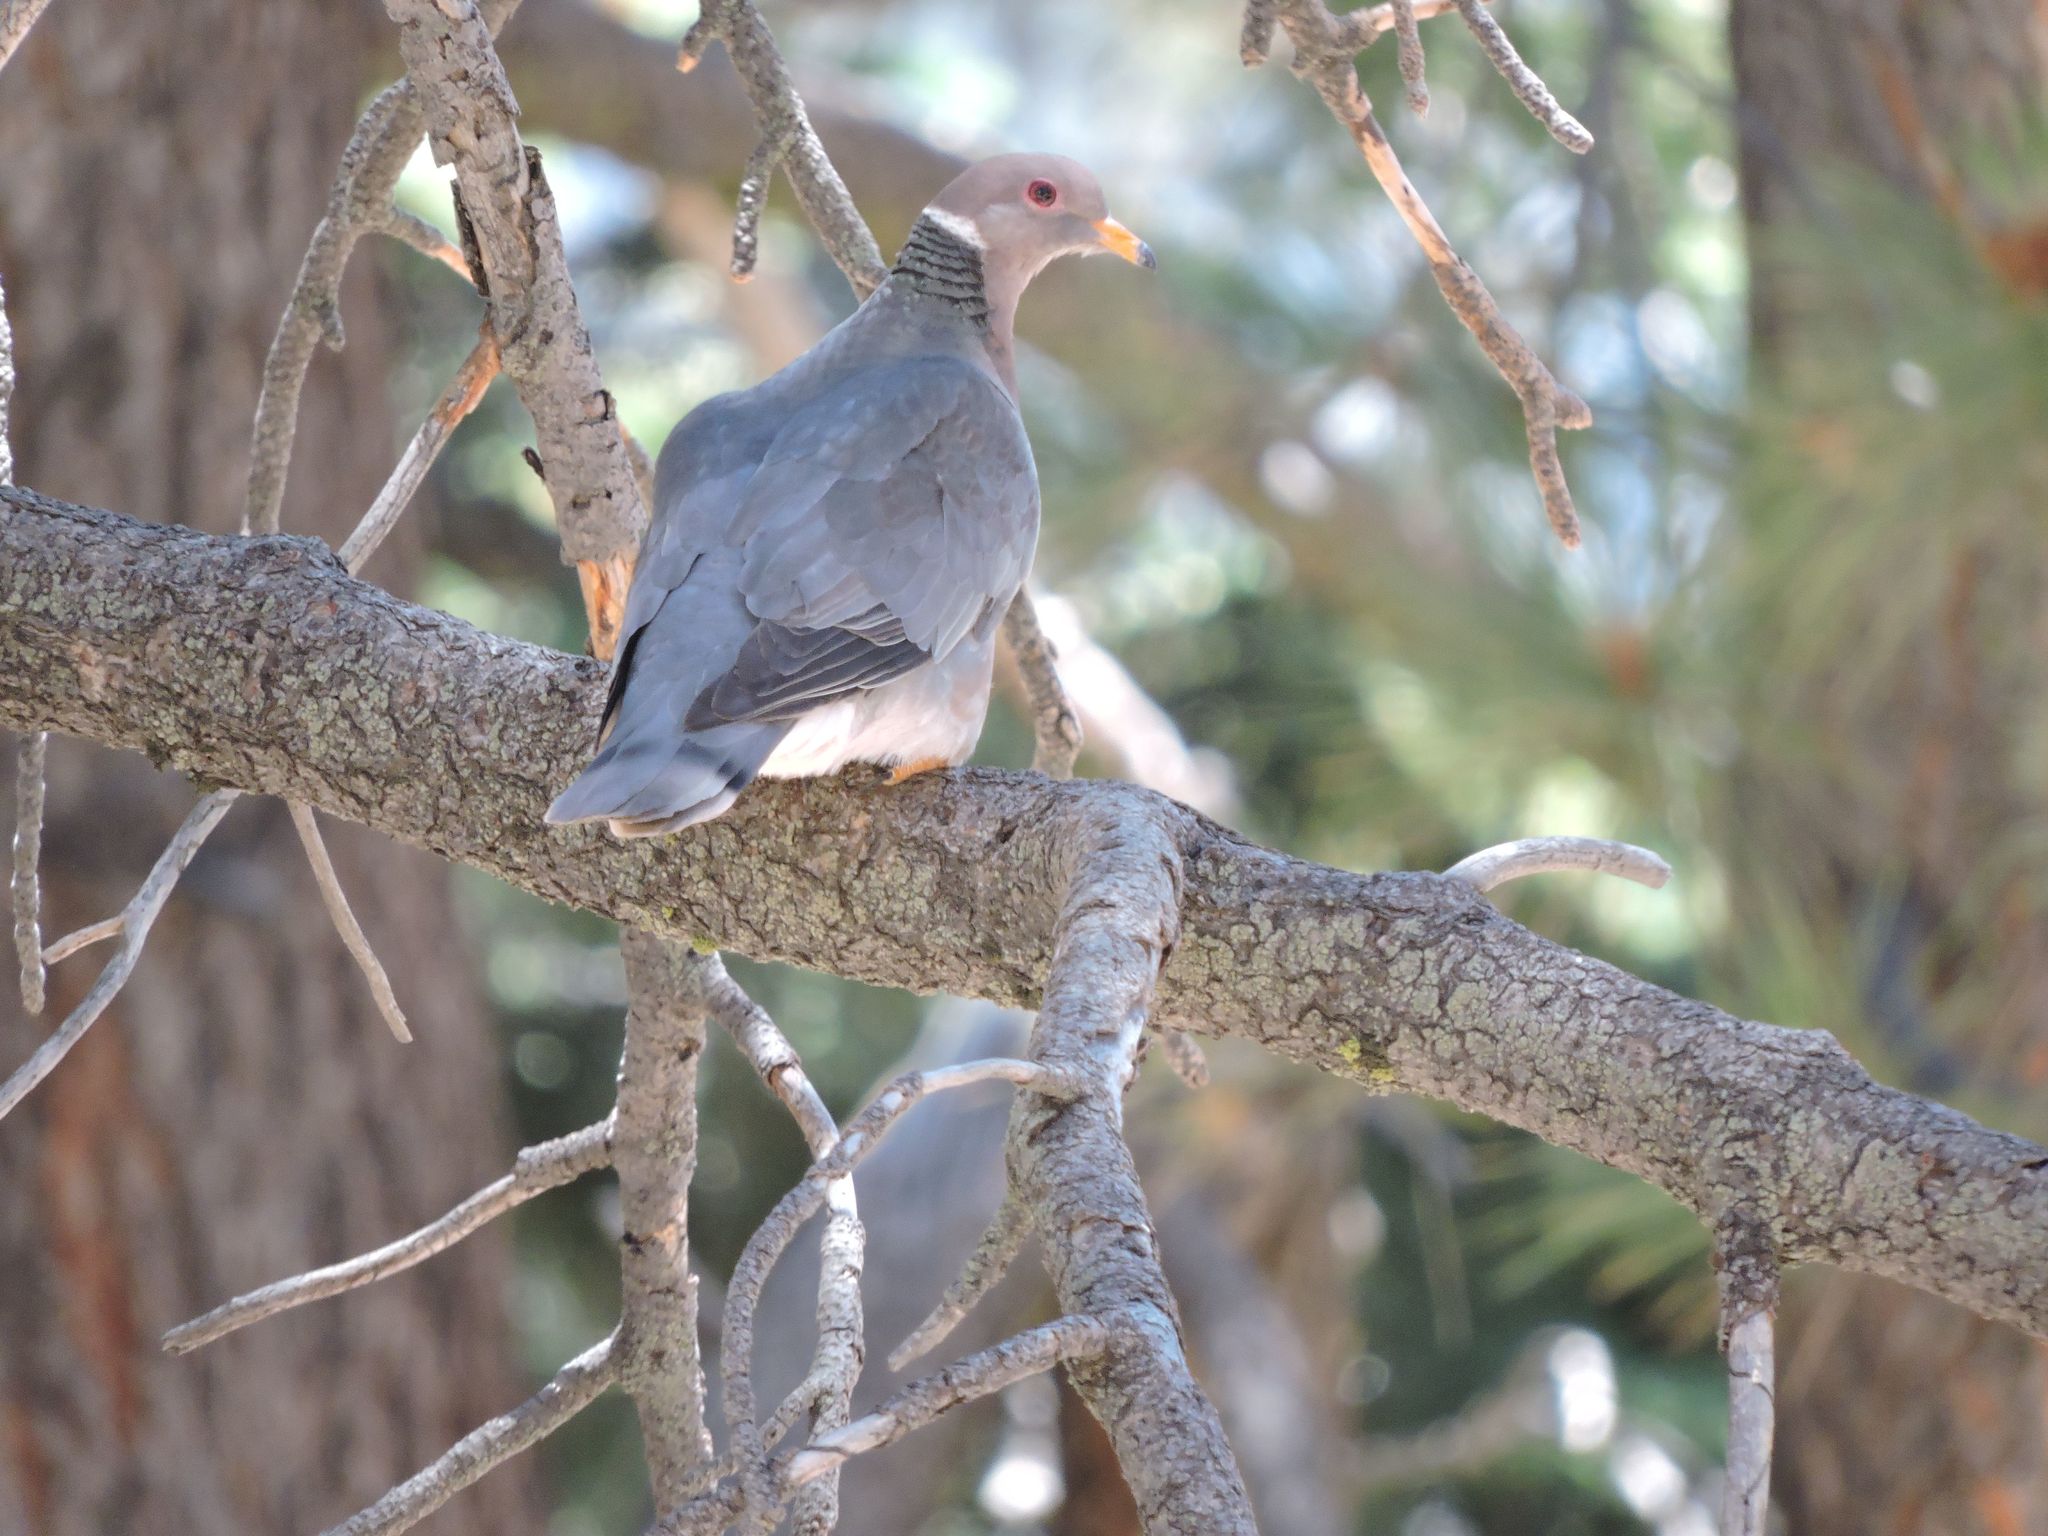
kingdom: Animalia
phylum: Chordata
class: Aves
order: Columbiformes
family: Columbidae
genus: Patagioenas
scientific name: Patagioenas fasciata
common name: Band-tailed pigeon
